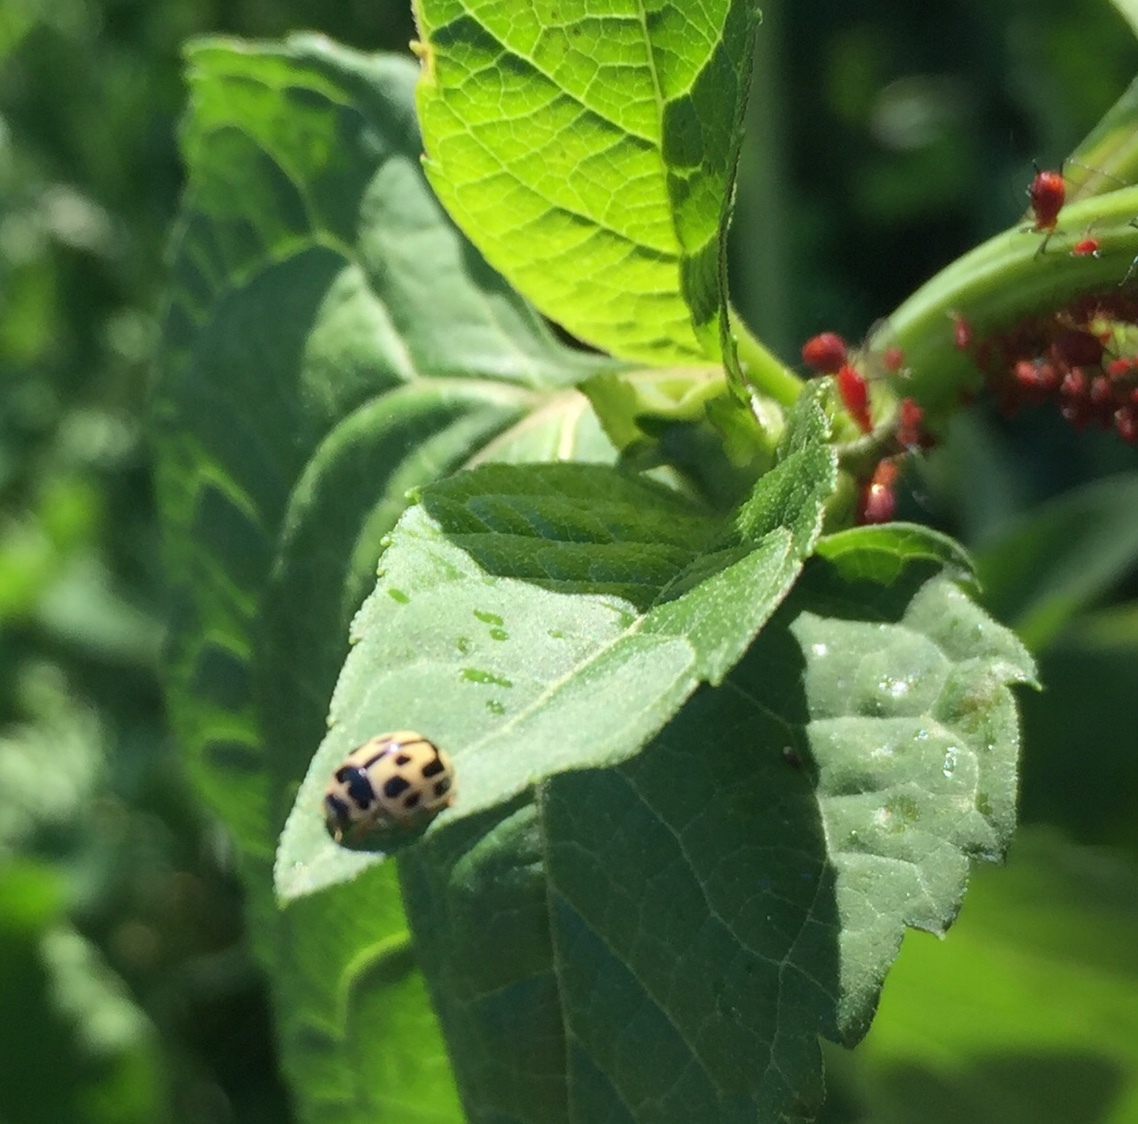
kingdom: Animalia
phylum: Arthropoda
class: Insecta
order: Coleoptera
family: Coccinellidae
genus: Propylaea
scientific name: Propylaea quatuordecimpunctata
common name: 14-spotted ladybird beetle
